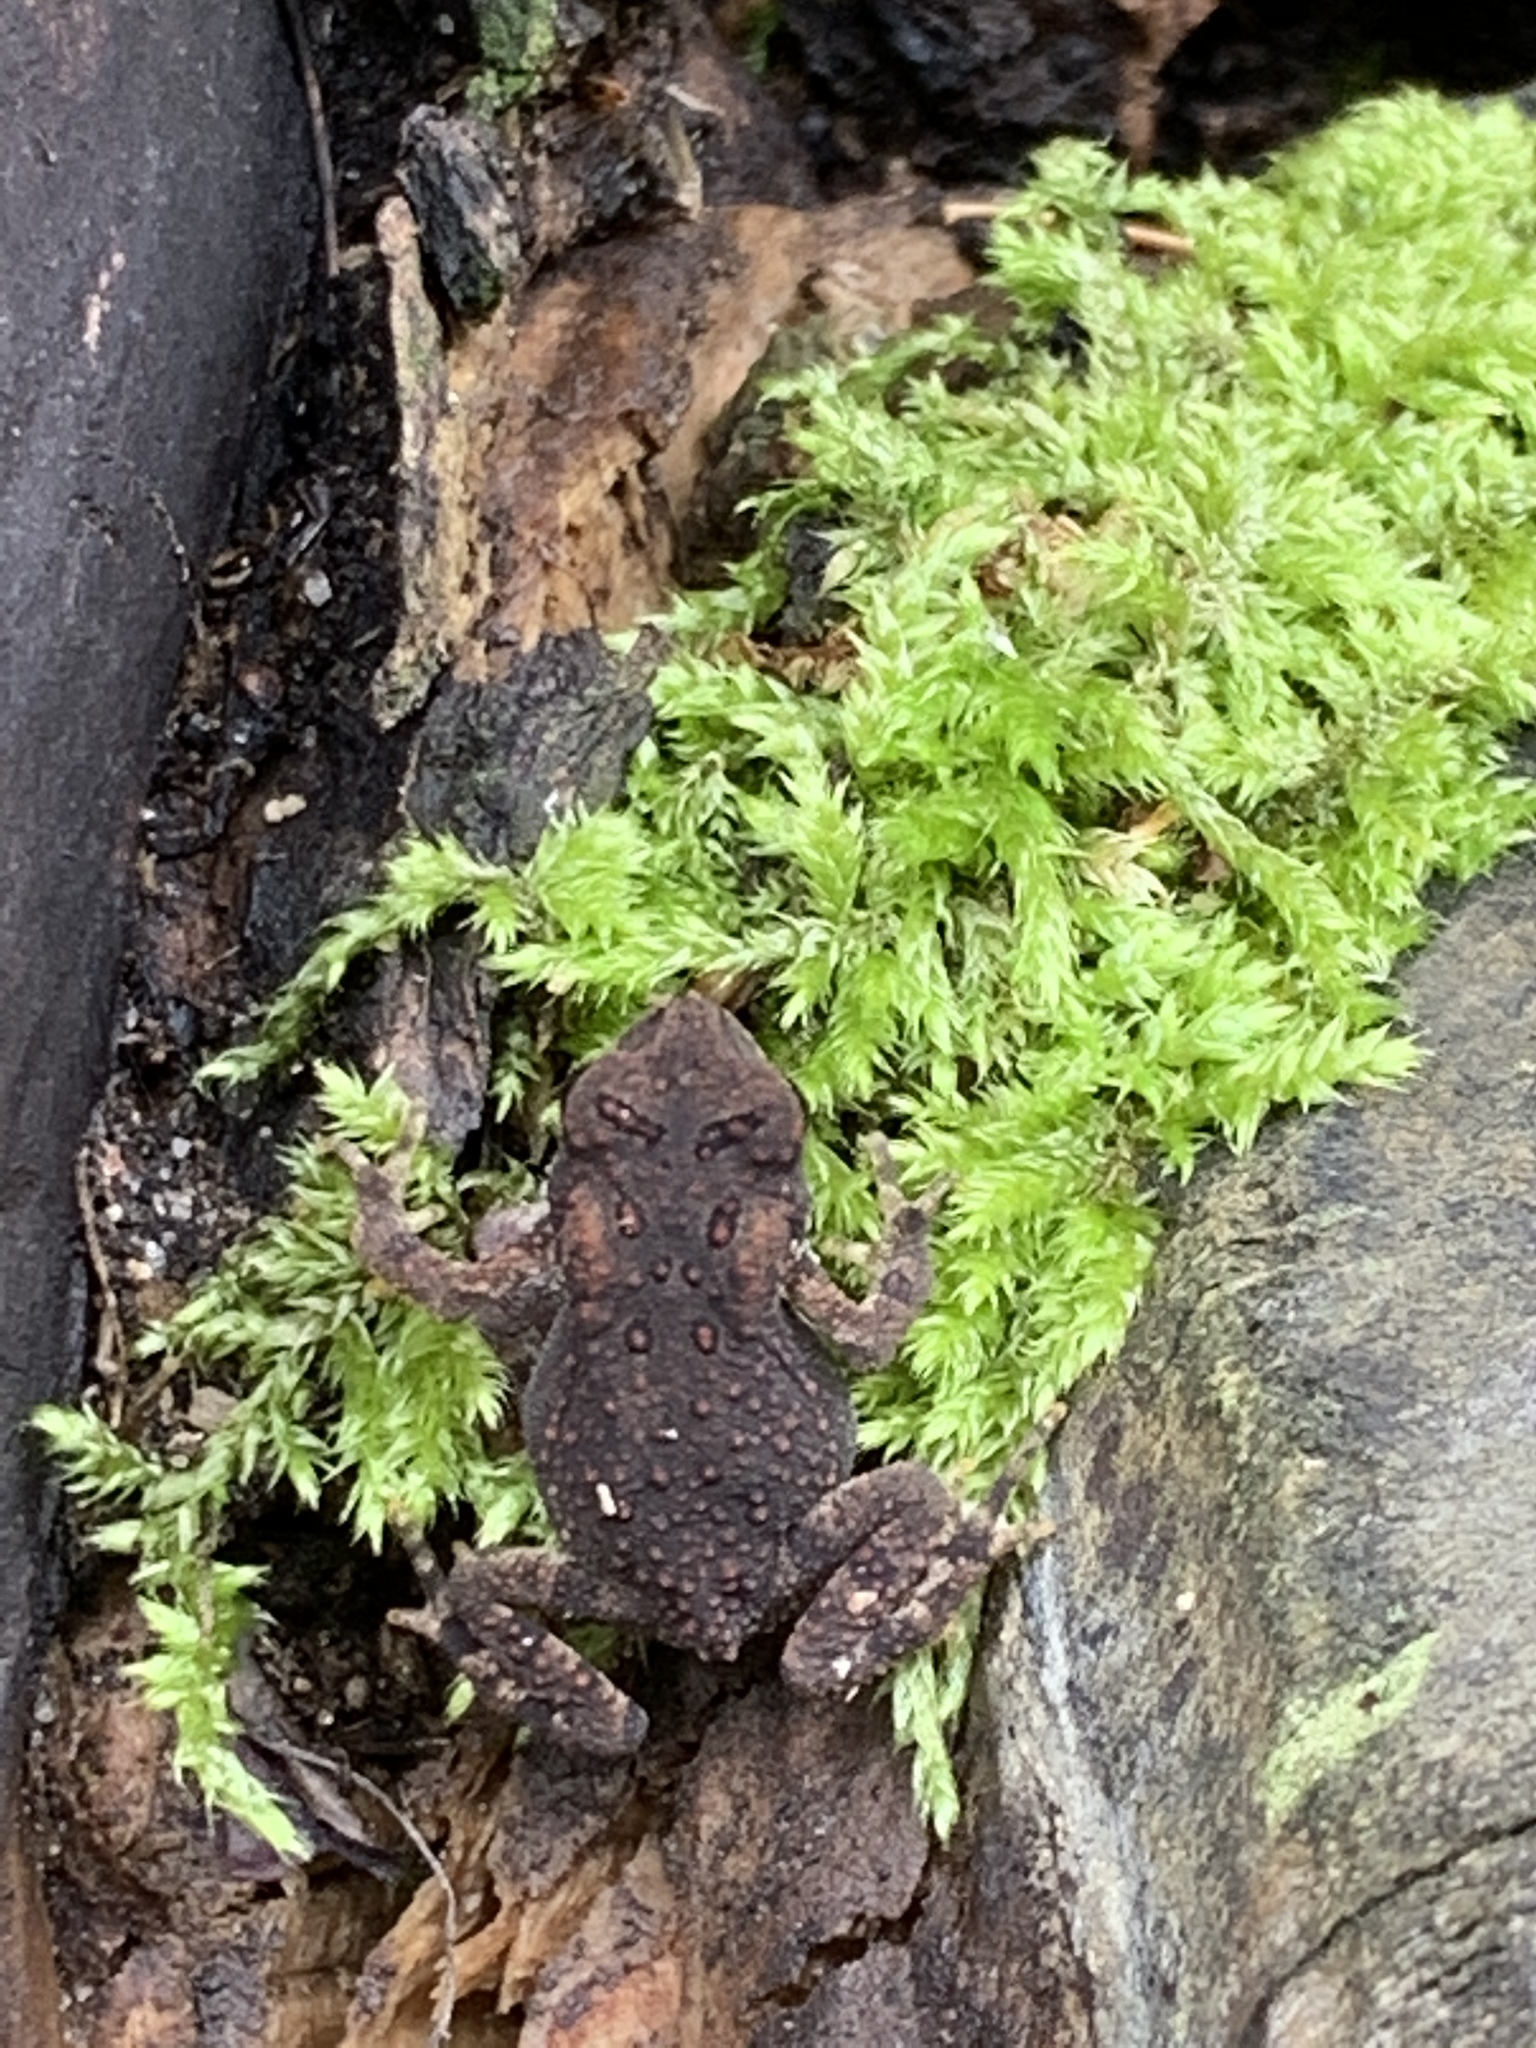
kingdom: Animalia
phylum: Chordata
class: Amphibia
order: Anura
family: Bufonidae
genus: Anaxyrus
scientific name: Anaxyrus americanus
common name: American toad
